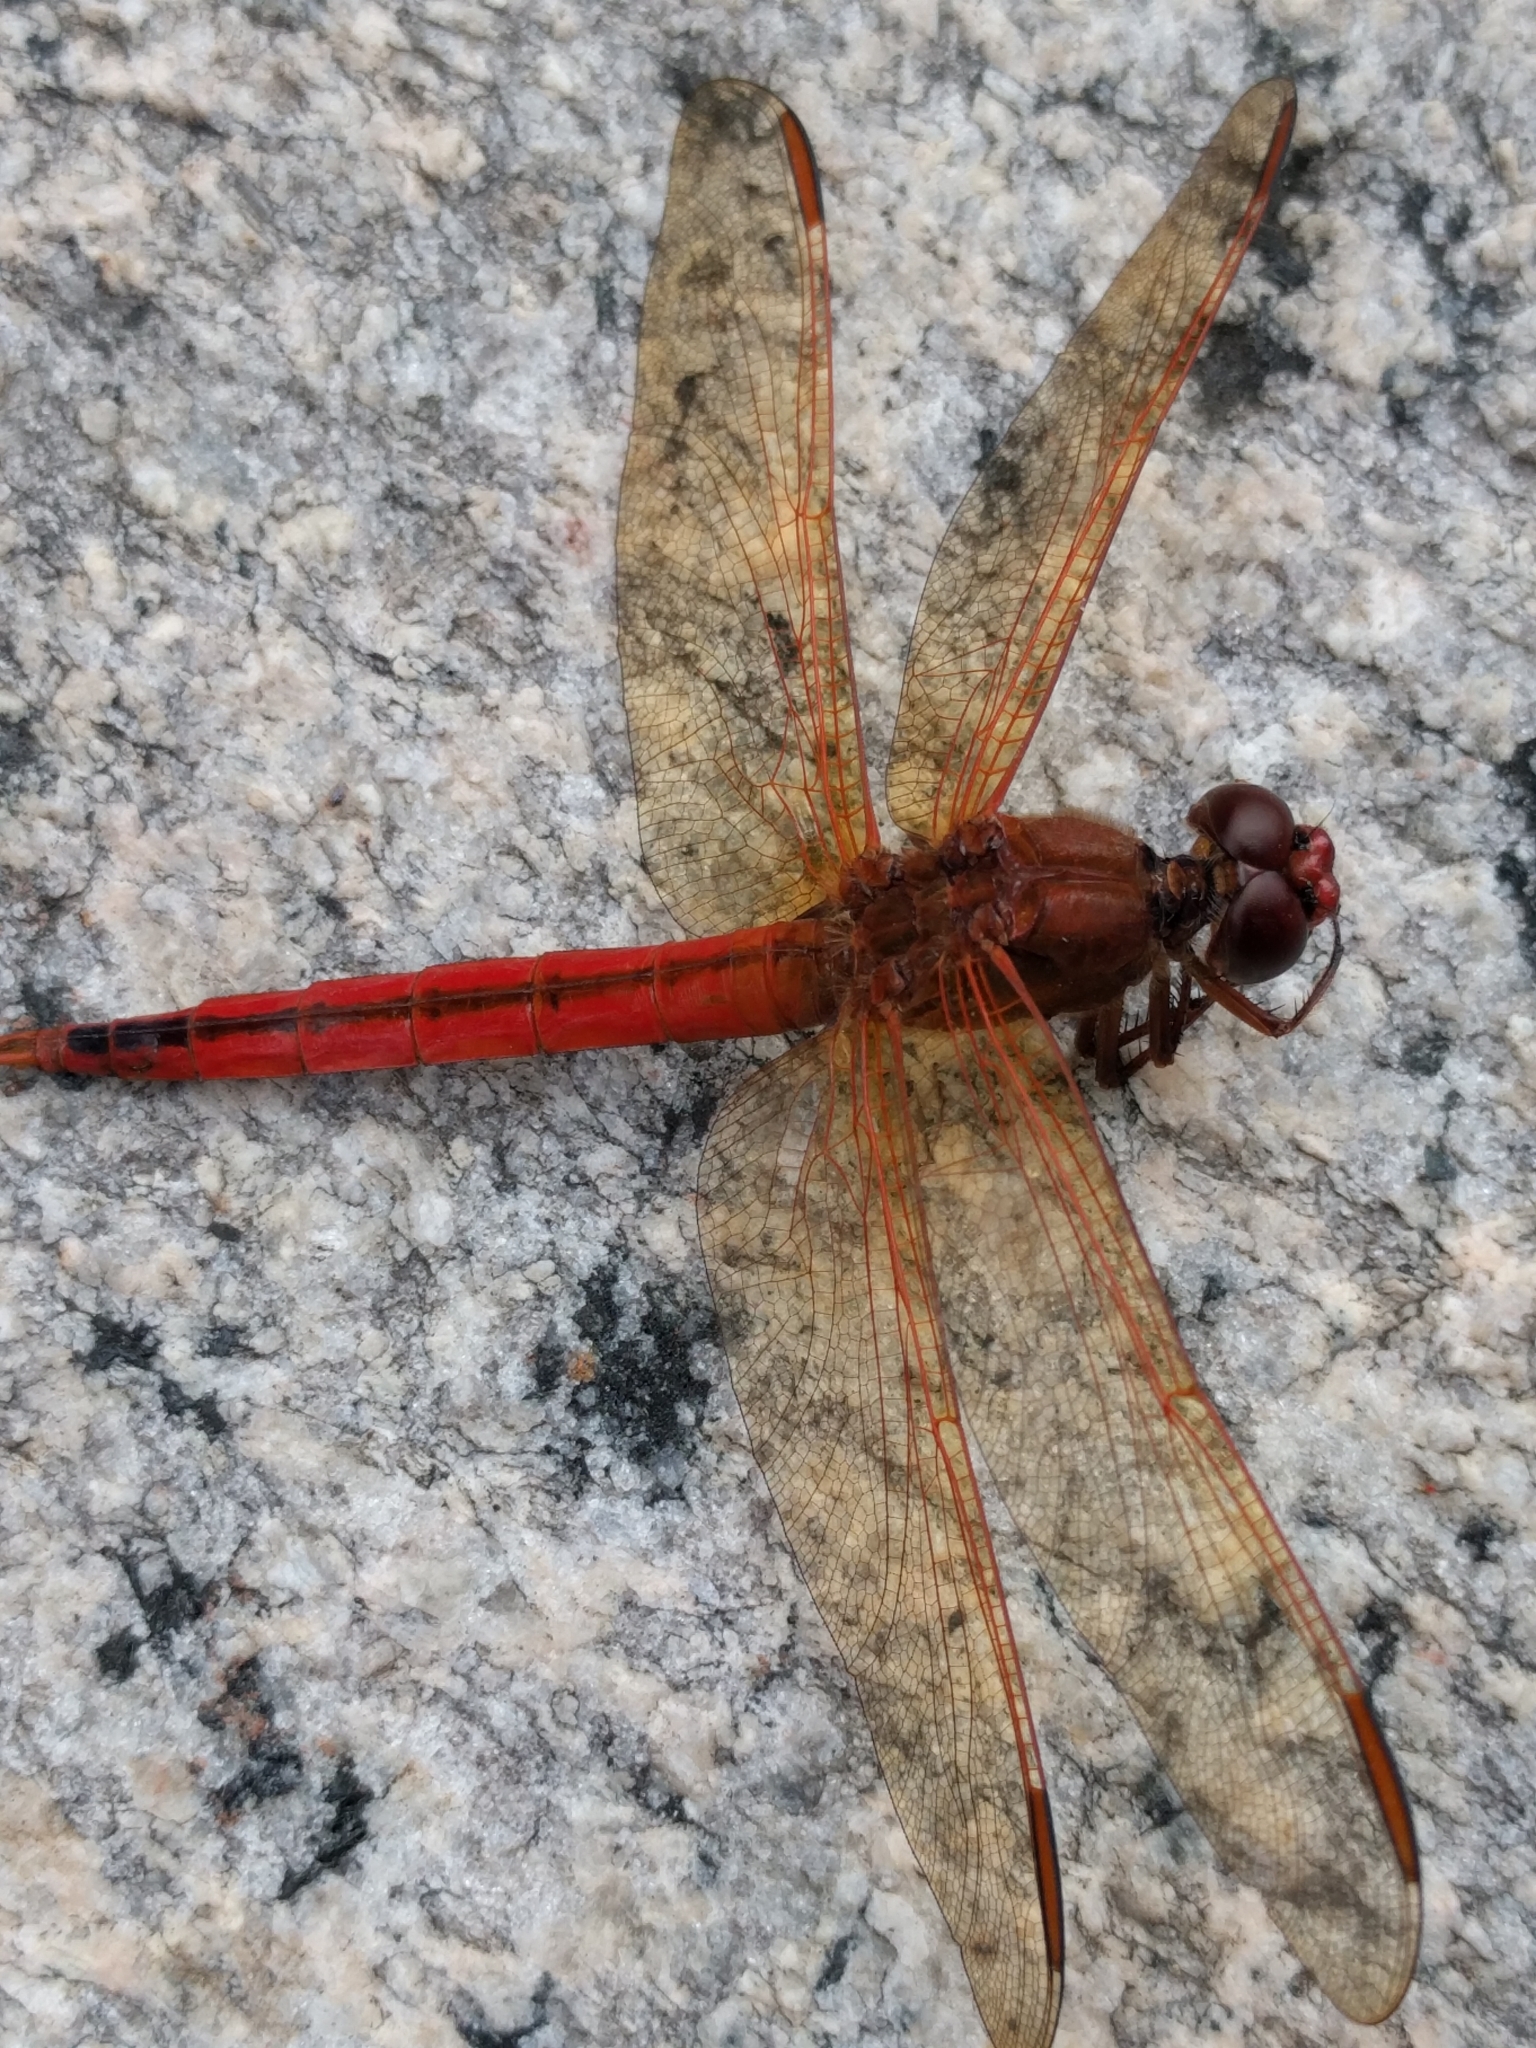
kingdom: Animalia
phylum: Arthropoda
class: Insecta
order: Odonata
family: Libellulidae
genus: Libellula
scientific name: Libellula needhami
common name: Needham's skimmer
